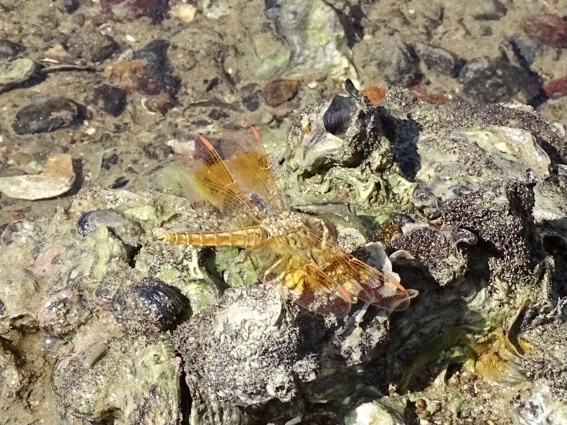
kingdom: Animalia
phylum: Arthropoda
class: Insecta
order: Odonata
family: Libellulidae
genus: Brachythemis
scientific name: Brachythemis contaminata
